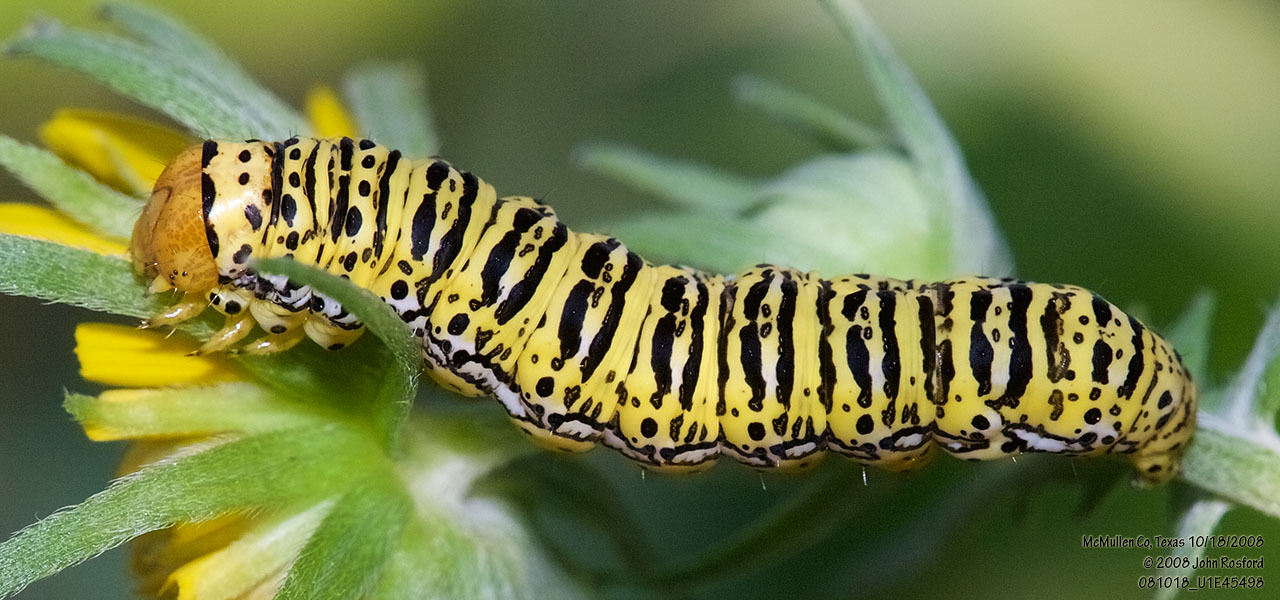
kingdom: Animalia
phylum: Arthropoda
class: Insecta
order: Lepidoptera
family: Noctuidae
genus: Basilodes
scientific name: Basilodes chrysopis
